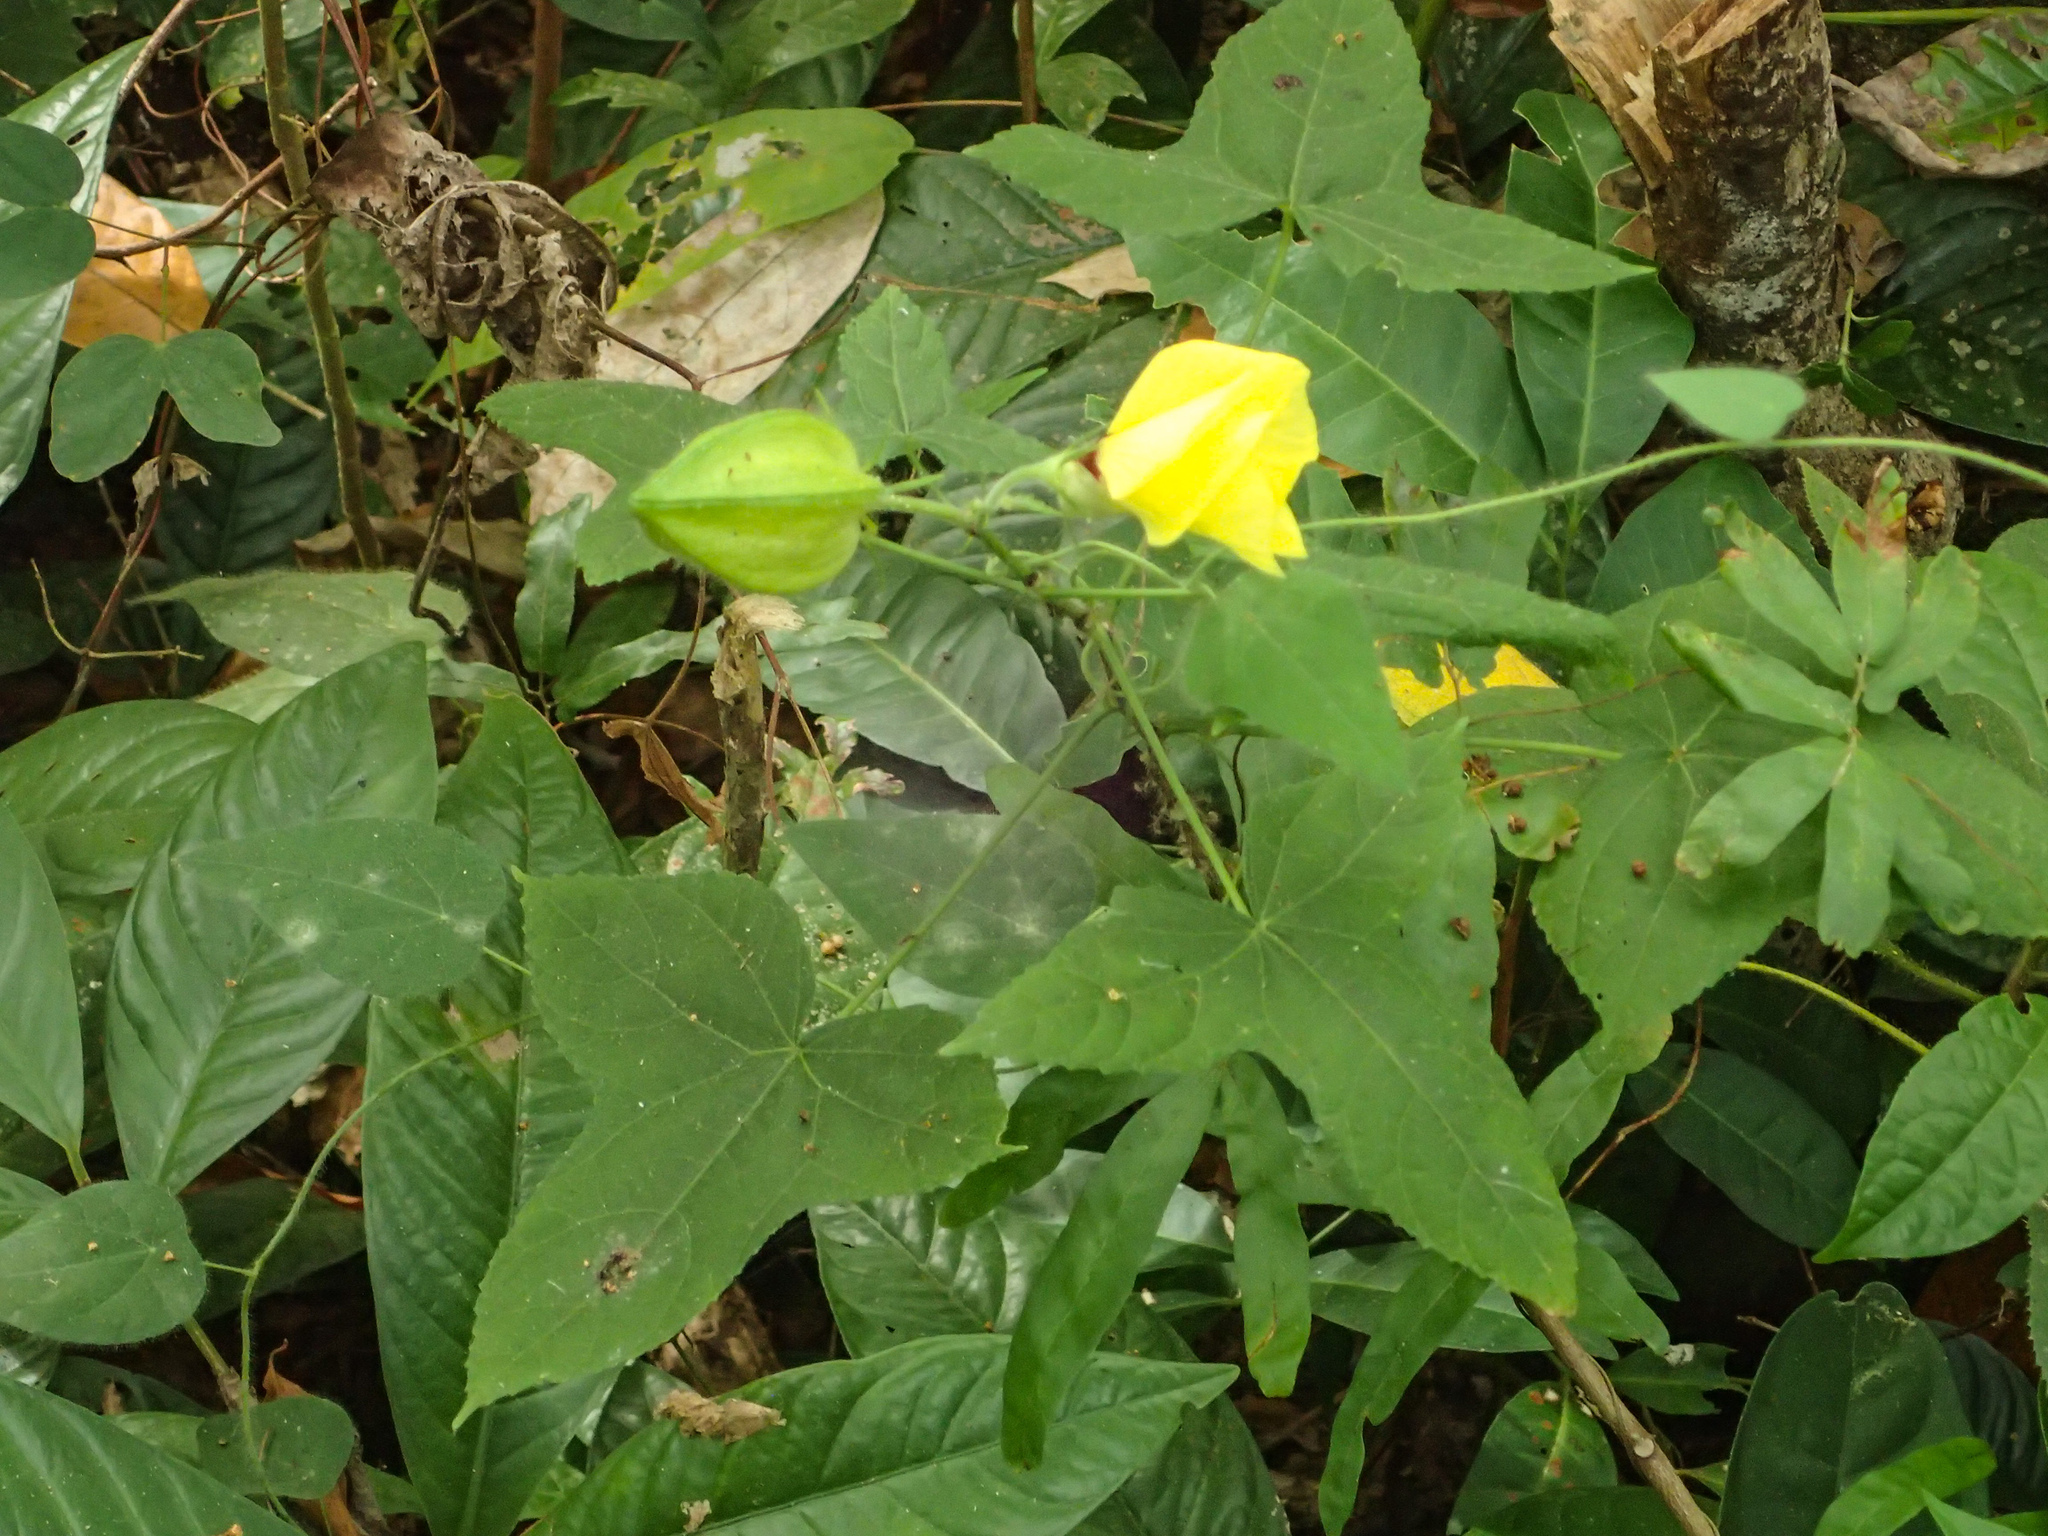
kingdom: Plantae
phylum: Tracheophyta
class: Magnoliopsida
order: Malvales
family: Malvaceae
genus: Abelmoschus
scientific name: Abelmoschus moschatus
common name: Musk okra
